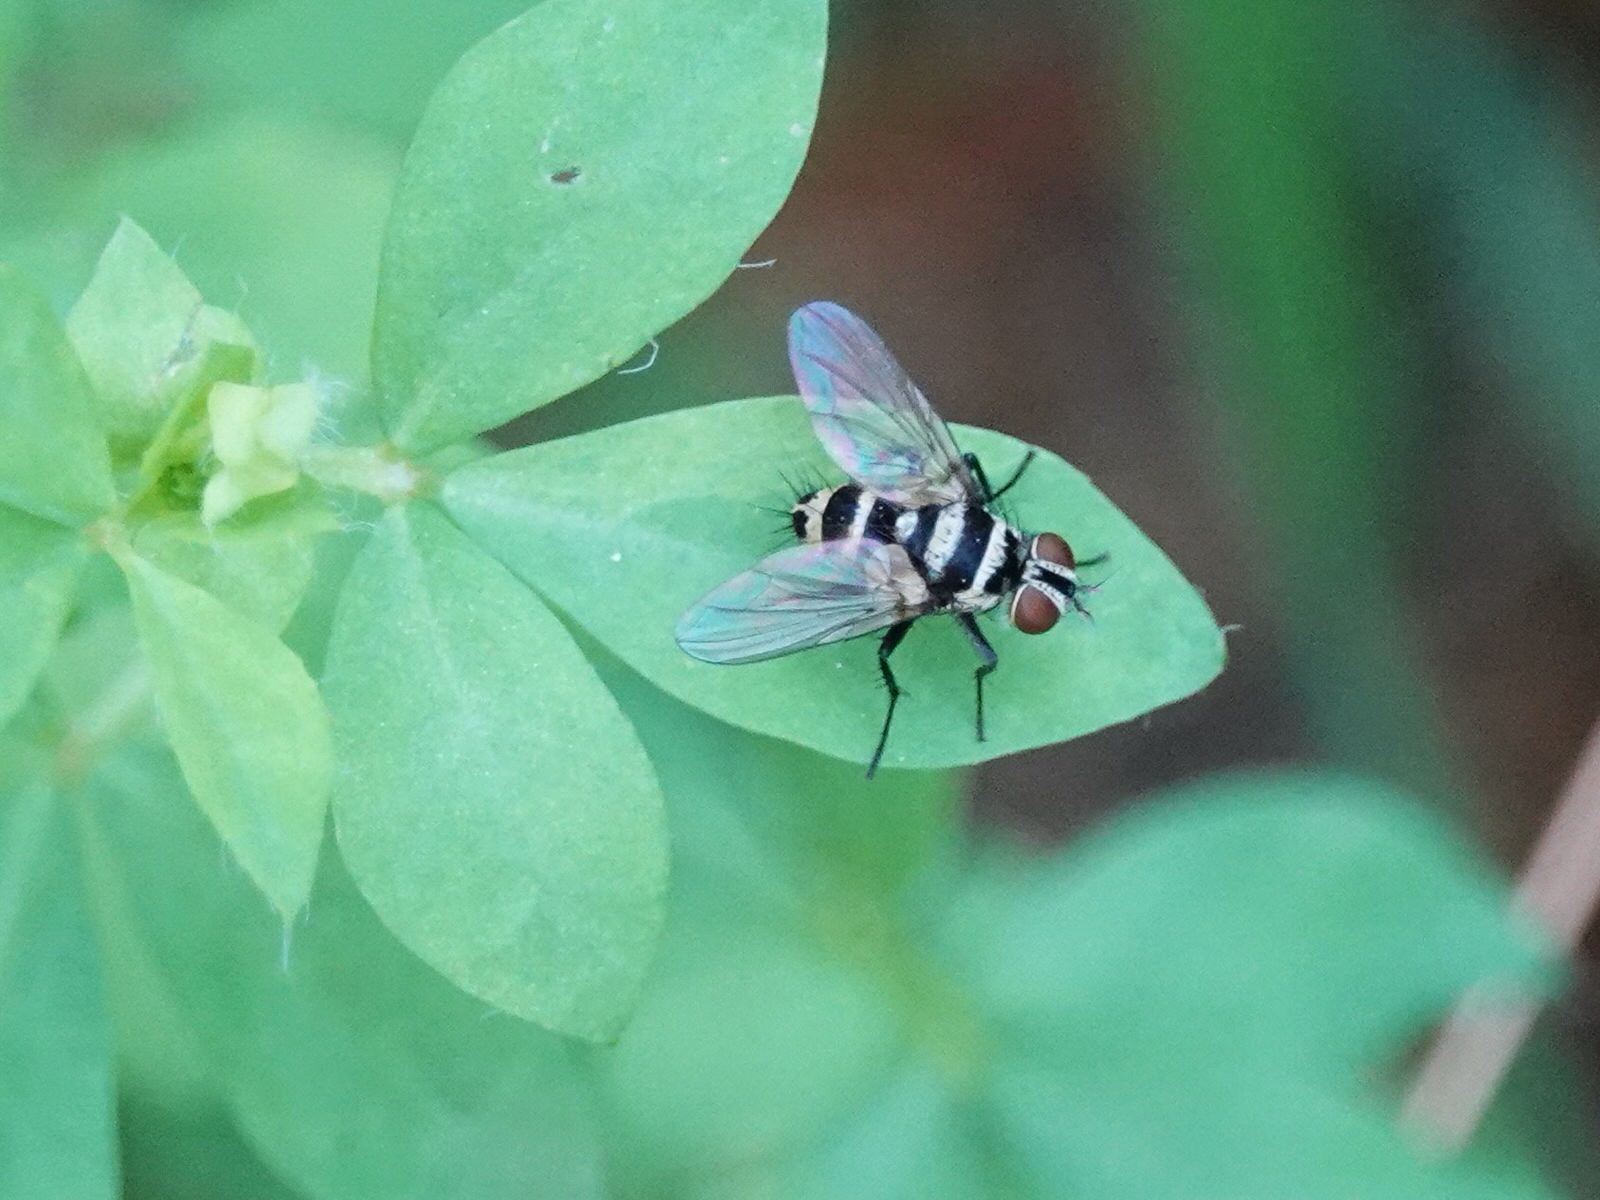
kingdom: Animalia
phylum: Arthropoda
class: Insecta
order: Diptera
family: Tachinidae
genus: Trigonospila
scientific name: Trigonospila brevifacies
